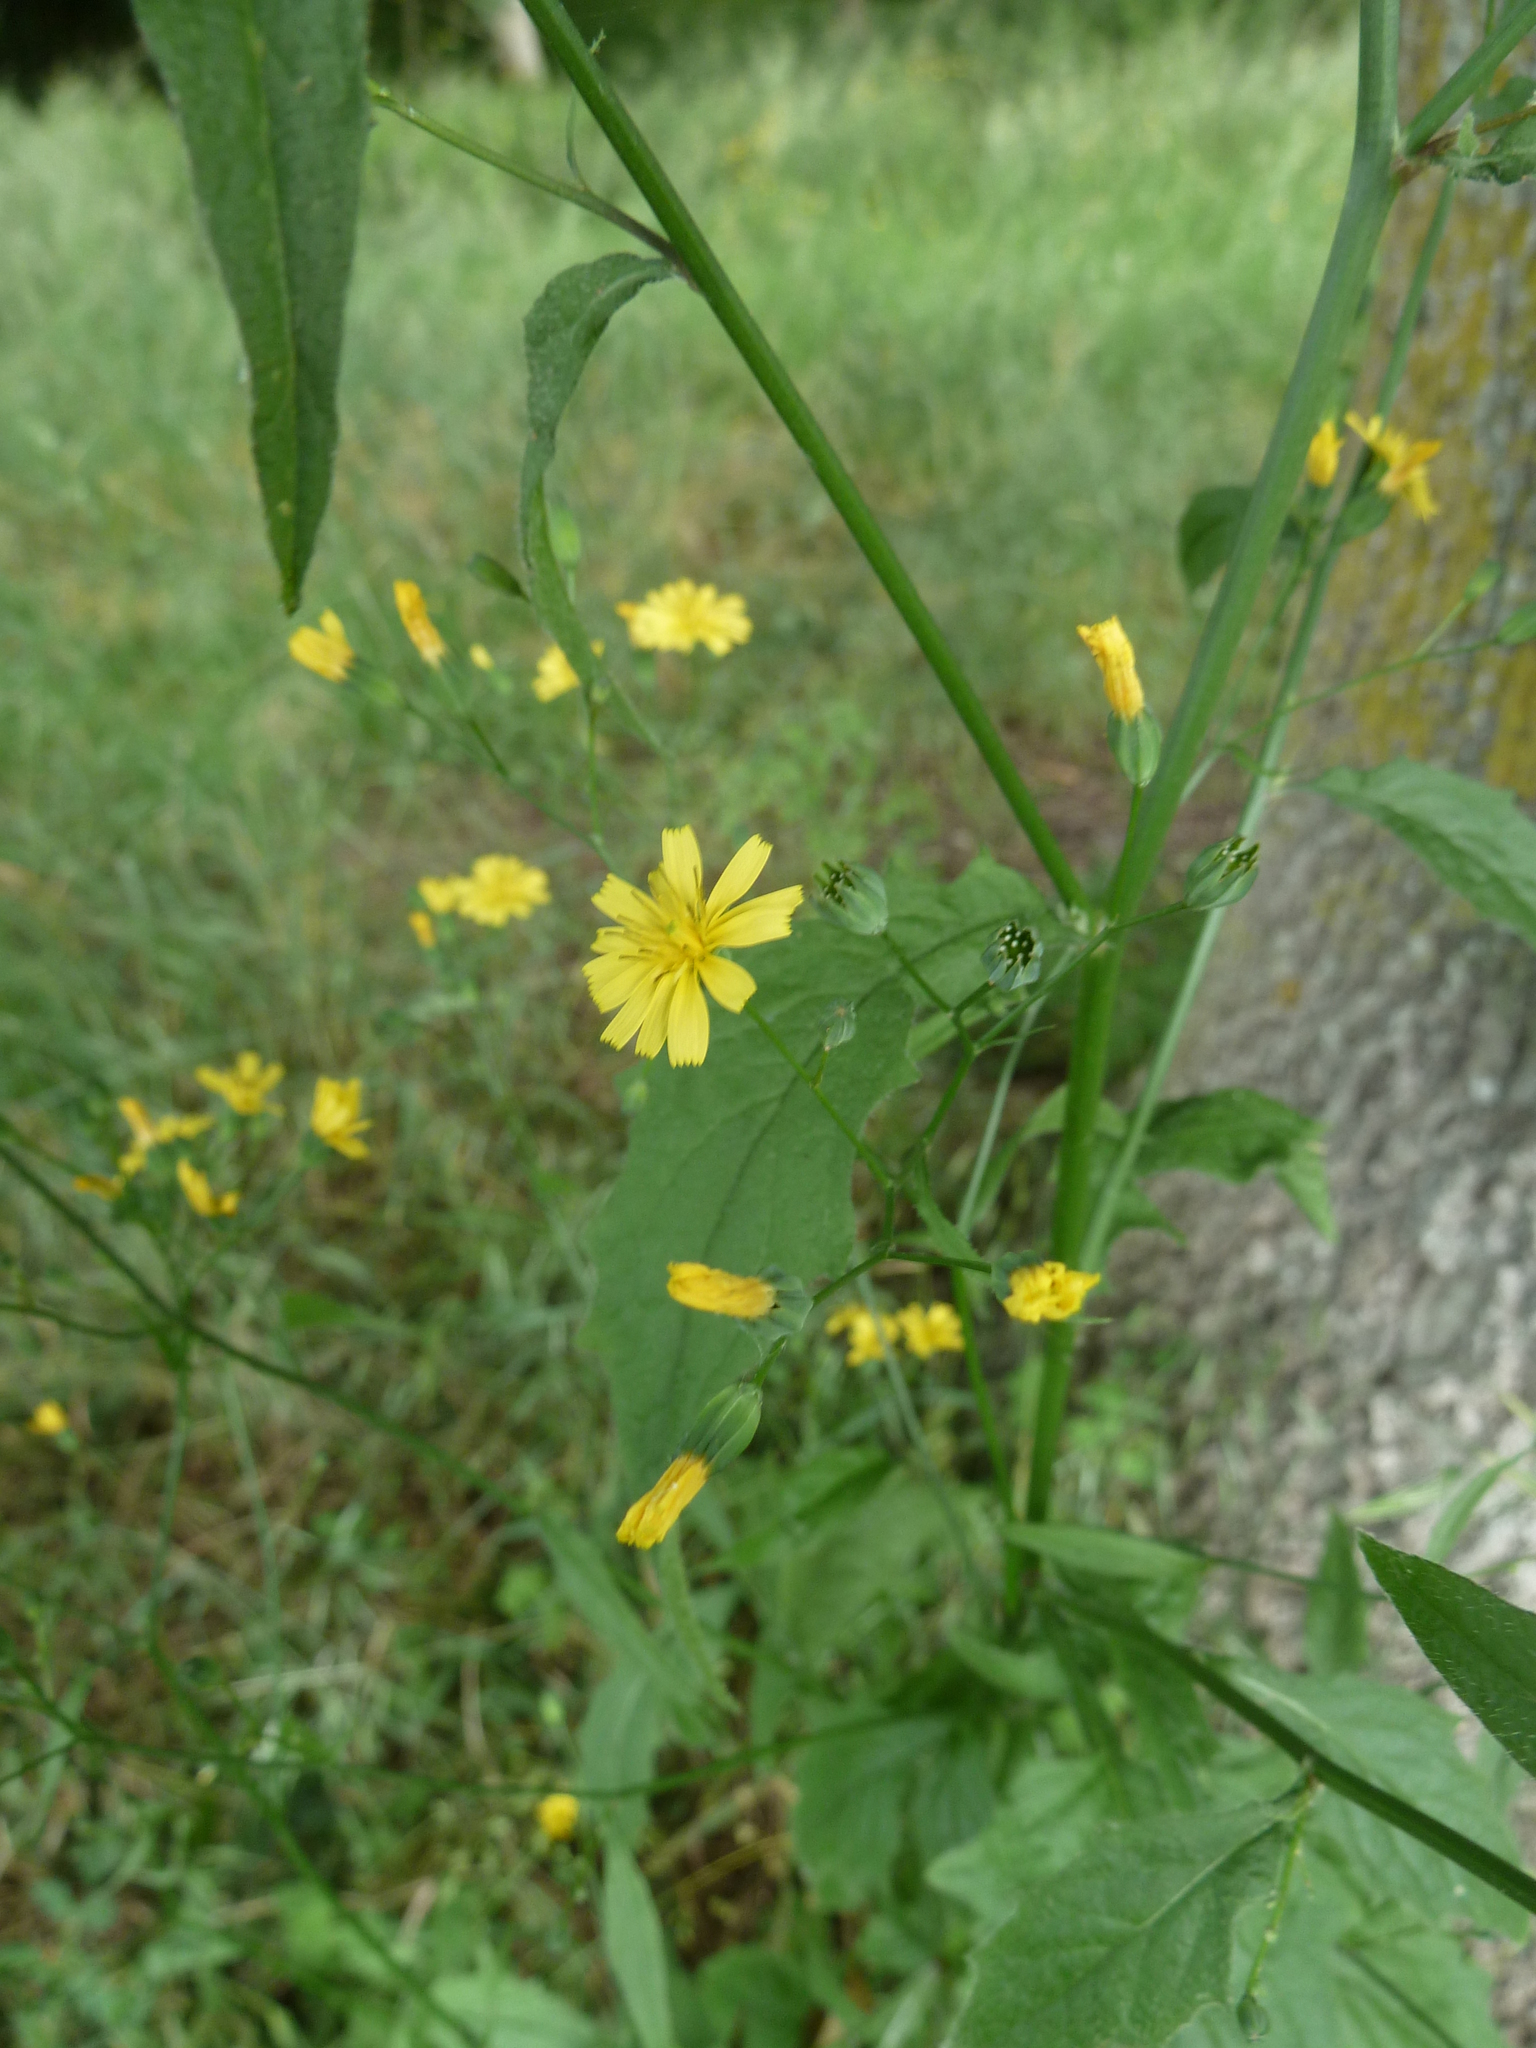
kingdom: Plantae
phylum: Tracheophyta
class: Magnoliopsida
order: Asterales
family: Asteraceae
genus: Lapsana
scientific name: Lapsana communis
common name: Nipplewort
